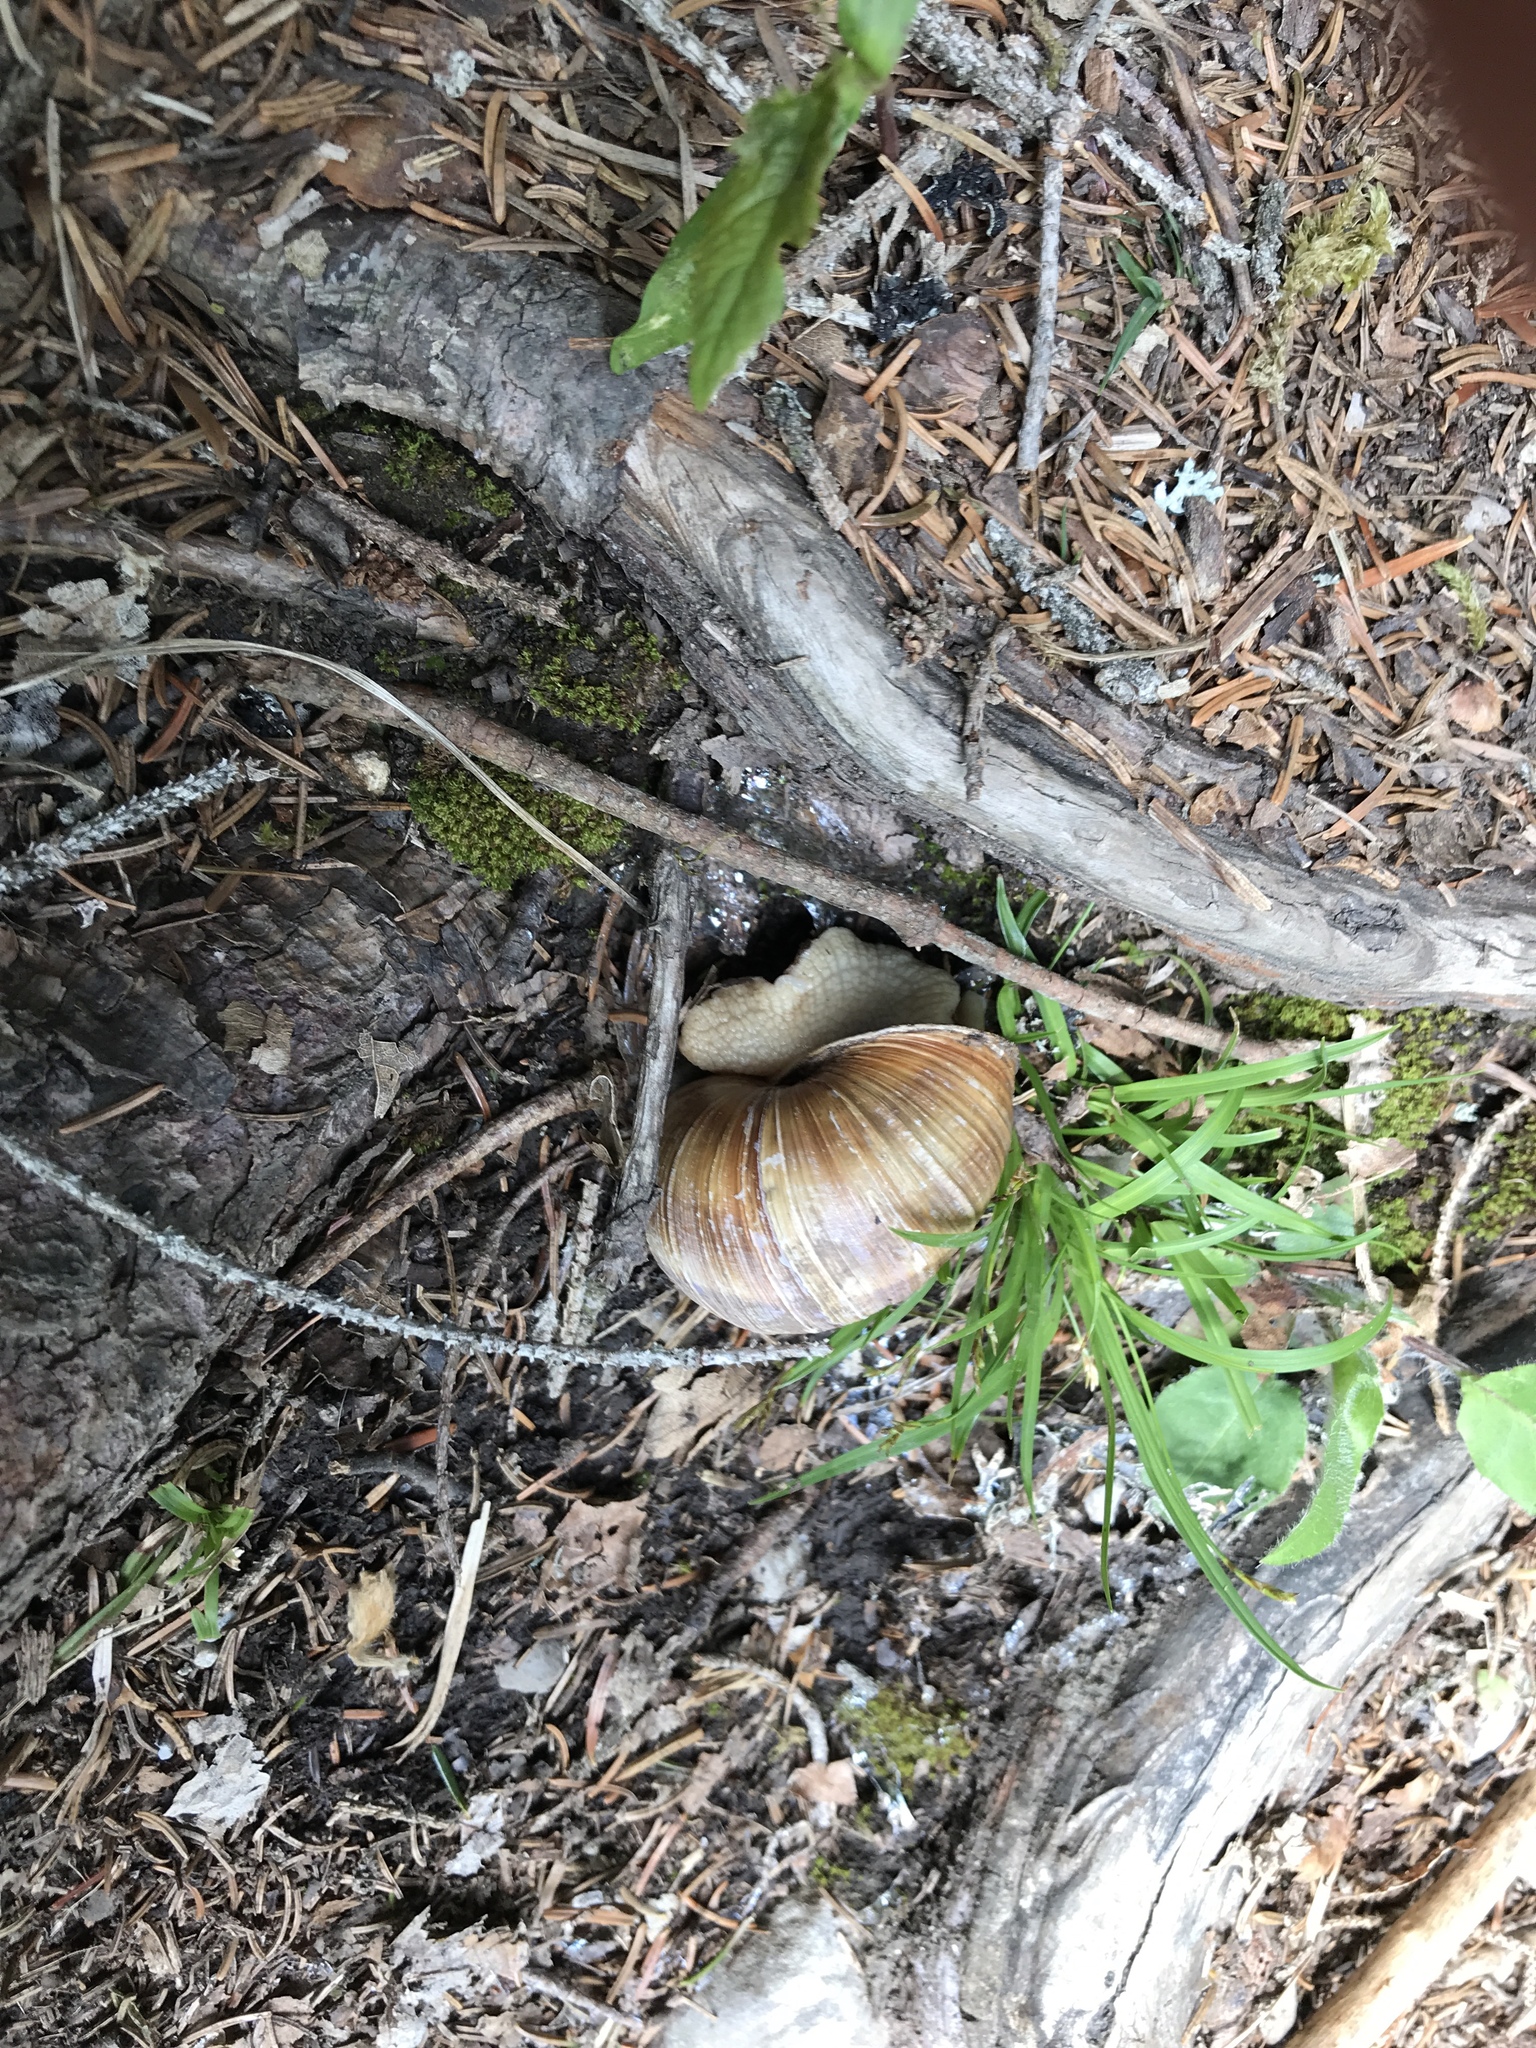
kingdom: Animalia
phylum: Mollusca
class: Gastropoda
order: Stylommatophora
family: Helicidae
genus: Helix
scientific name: Helix pomatia
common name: Roman snail
